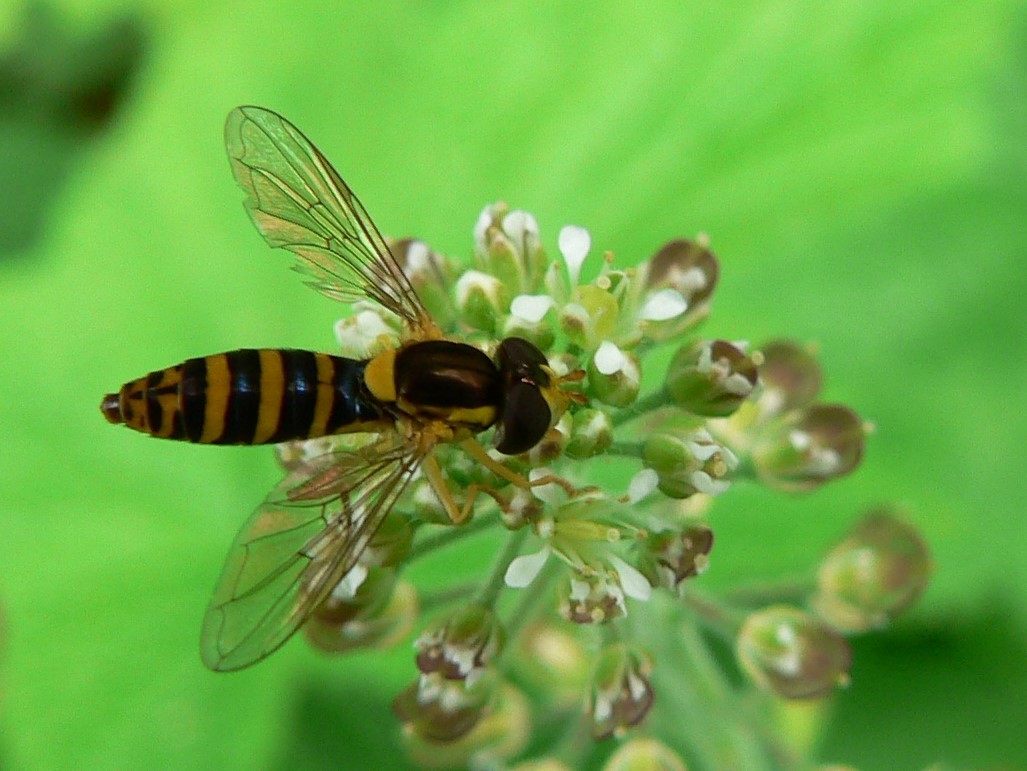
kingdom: Animalia
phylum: Arthropoda
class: Insecta
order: Diptera
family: Syrphidae
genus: Sphaerophoria
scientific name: Sphaerophoria
